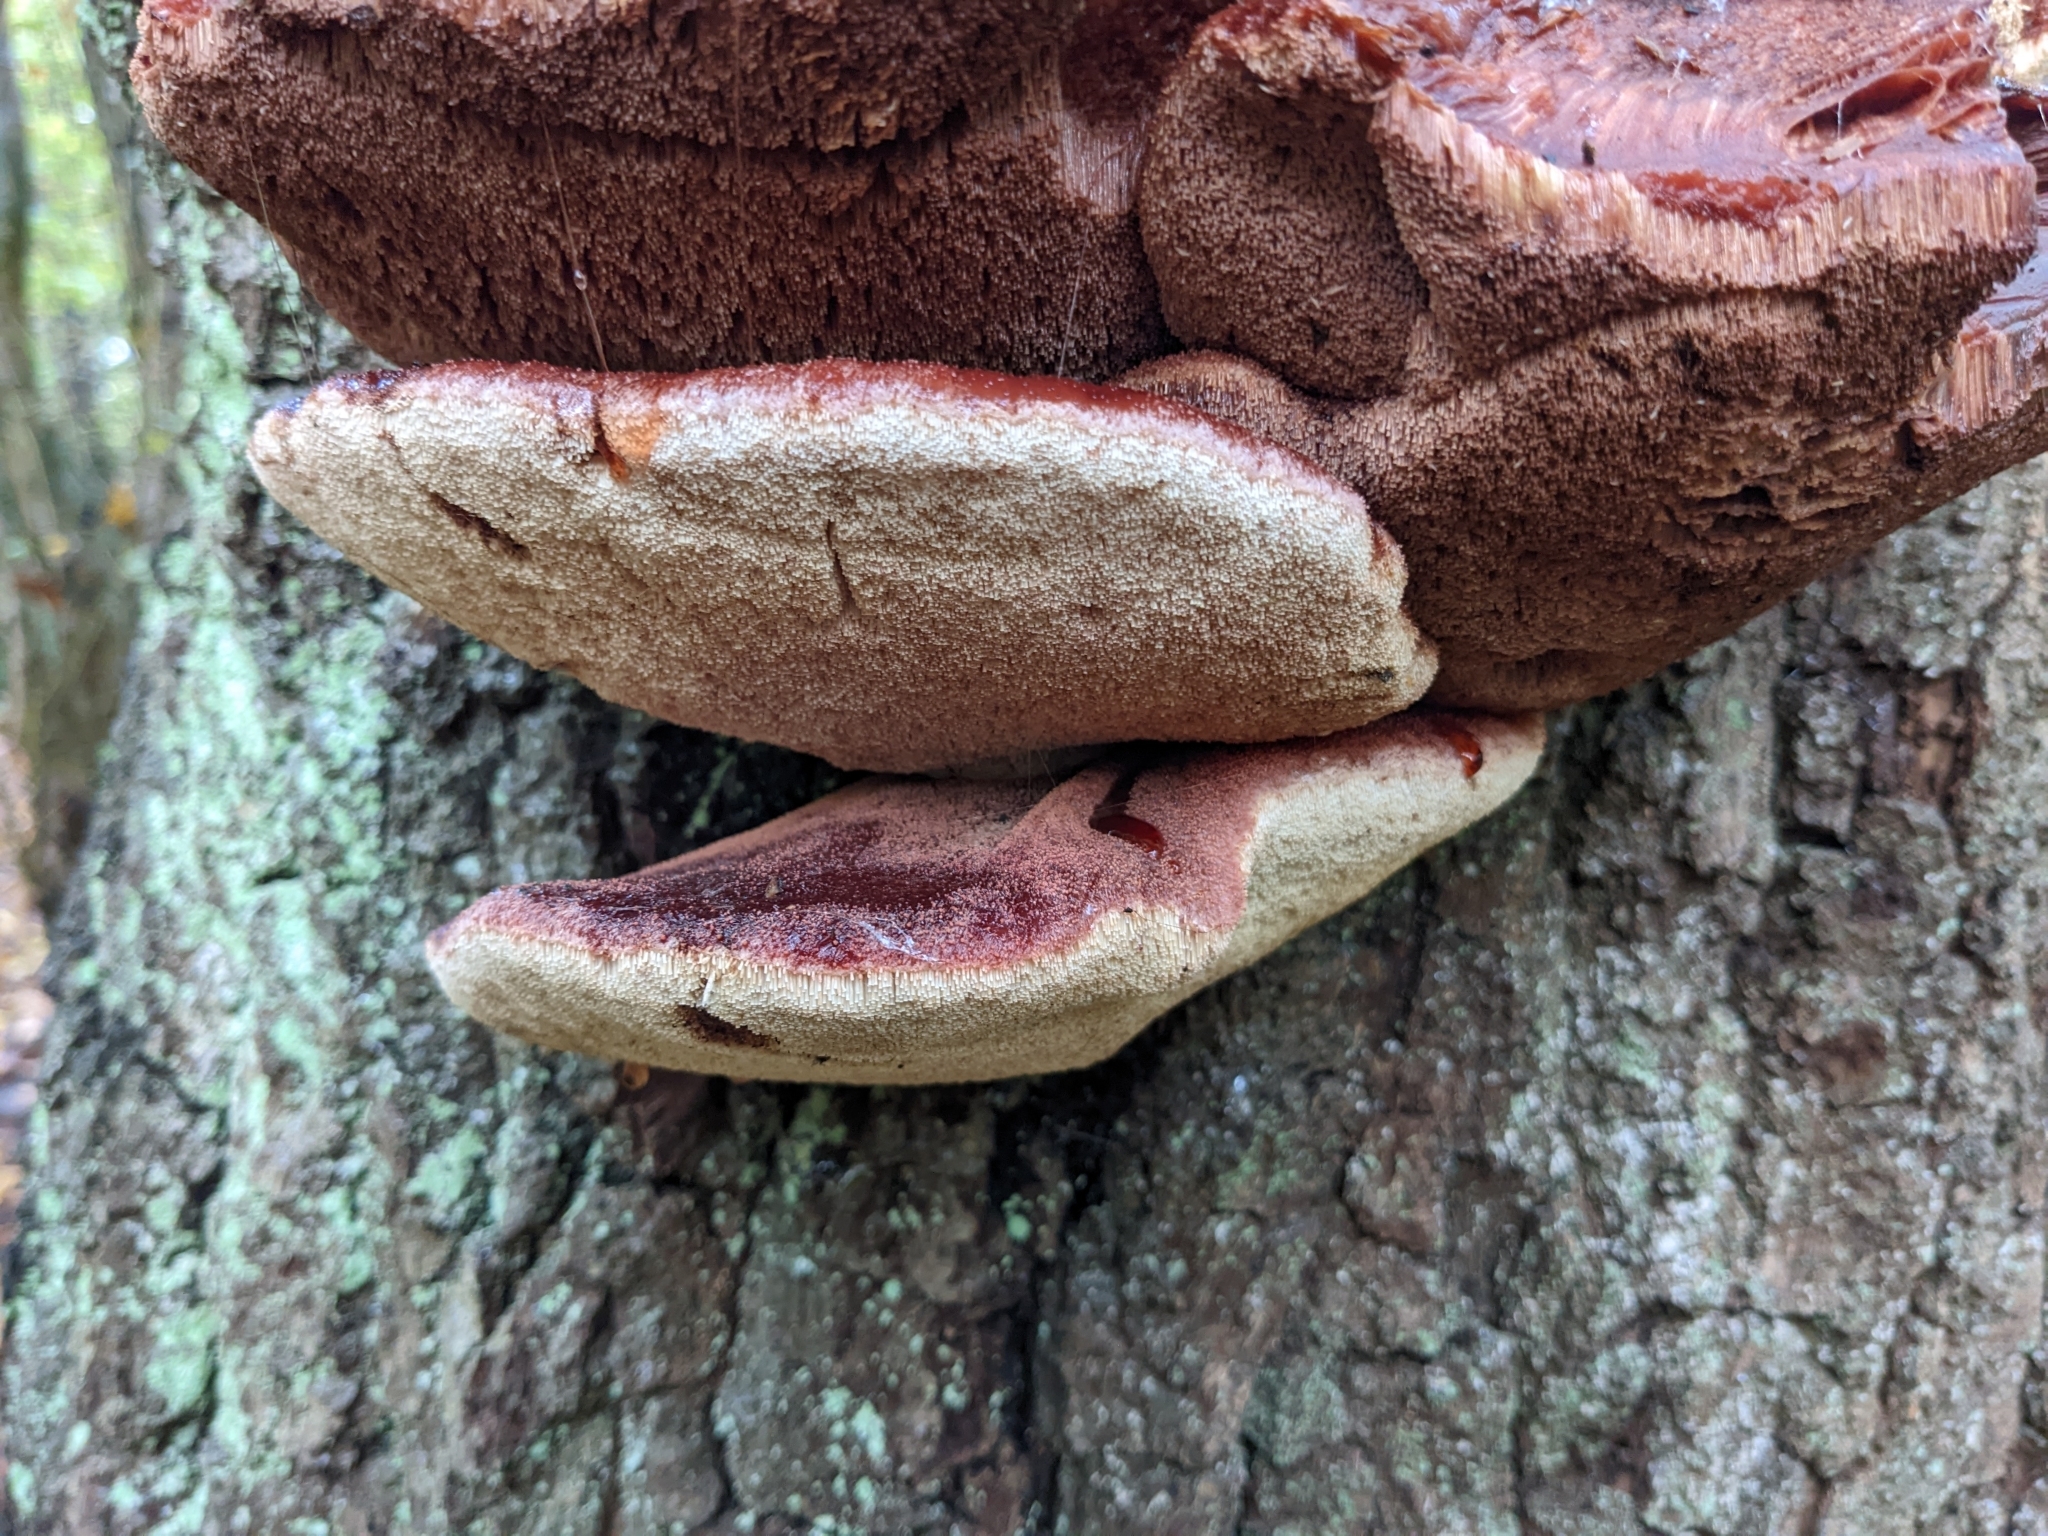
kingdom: Fungi
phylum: Basidiomycota
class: Agaricomycetes
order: Agaricales
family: Fistulinaceae
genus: Fistulina
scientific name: Fistulina hepatica
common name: Beef-steak fungus
